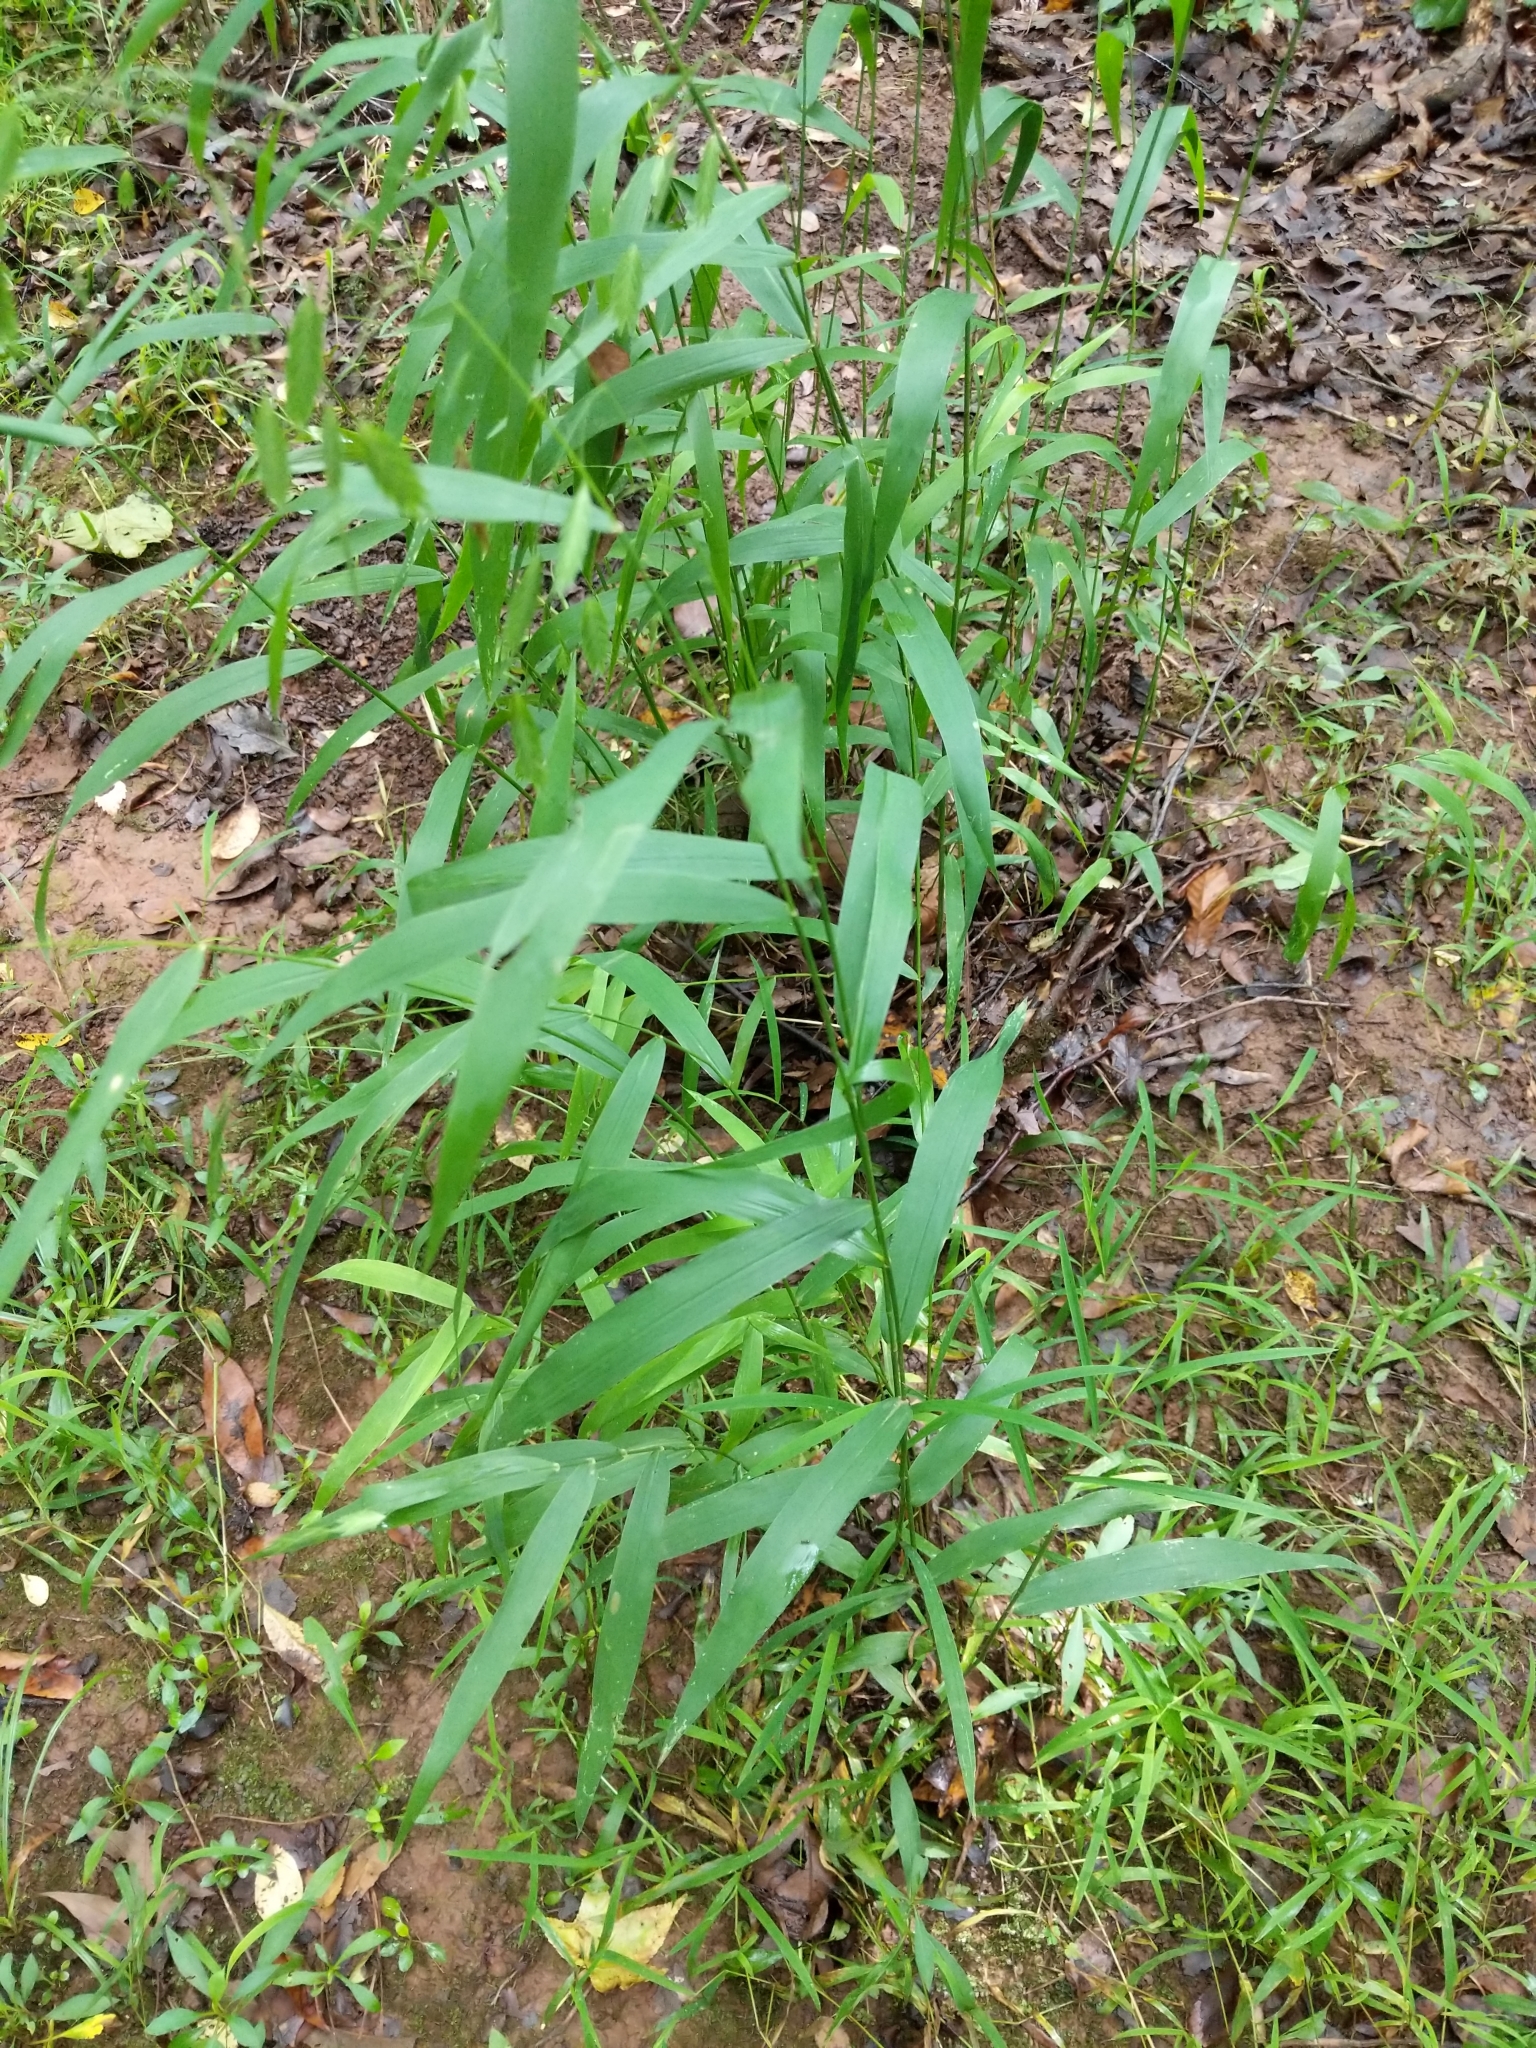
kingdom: Plantae
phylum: Tracheophyta
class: Liliopsida
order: Poales
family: Poaceae
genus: Chasmanthium
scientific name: Chasmanthium latifolium
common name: Broad-leaved chasmanthium
